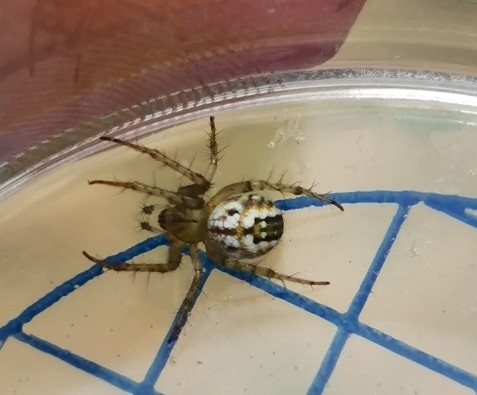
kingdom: Animalia
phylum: Arthropoda
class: Arachnida
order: Araneae
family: Araneidae
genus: Mangora
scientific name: Mangora acalypha
